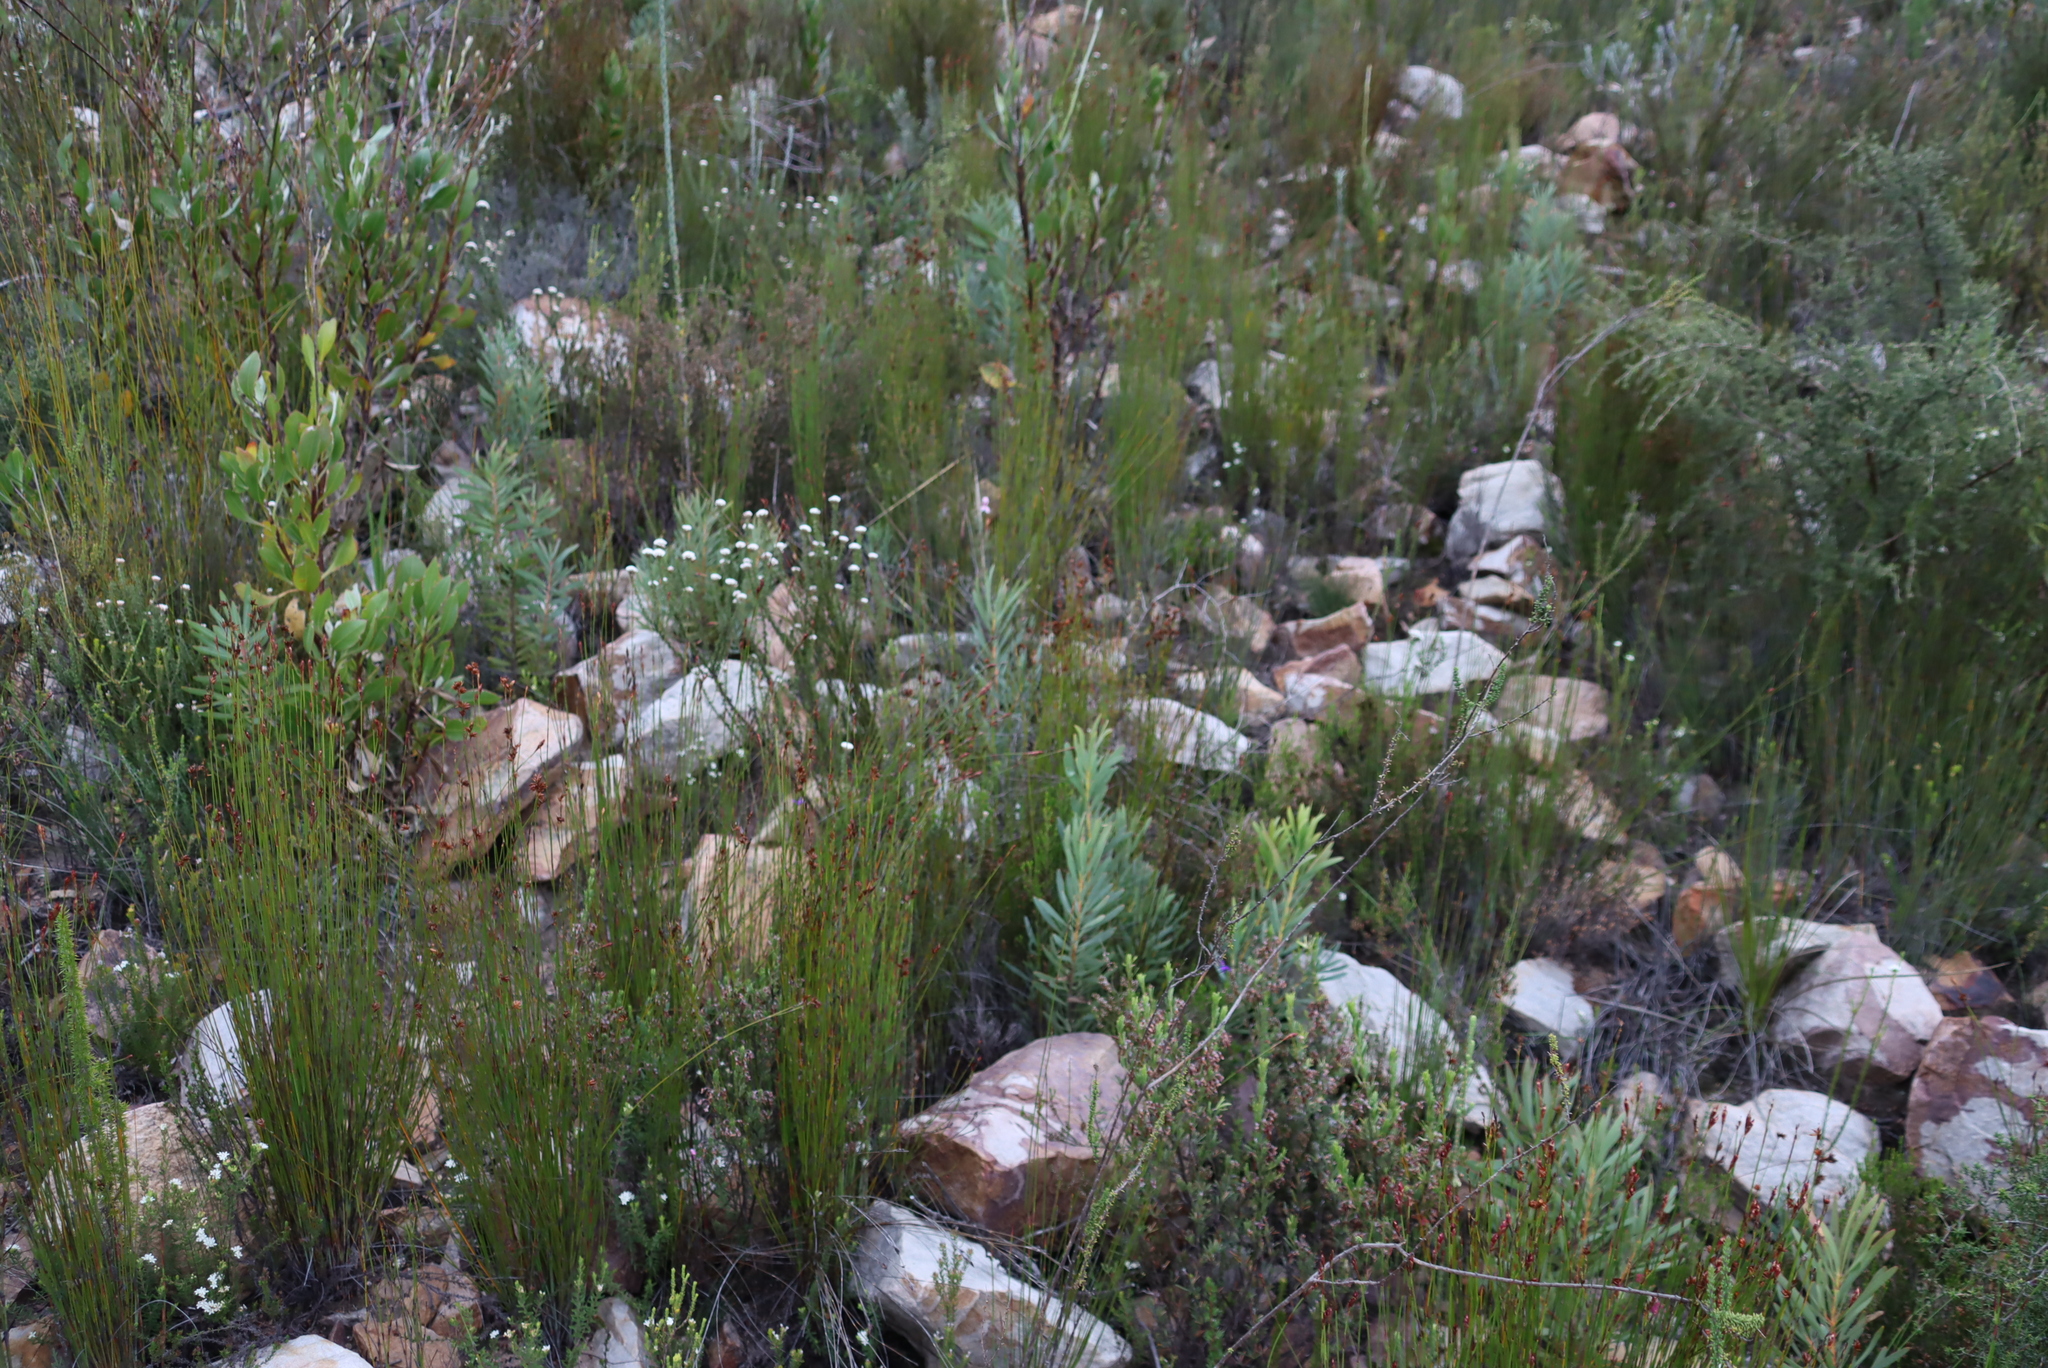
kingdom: Plantae
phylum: Tracheophyta
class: Magnoliopsida
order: Proteales
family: Proteaceae
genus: Protea
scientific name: Protea repens
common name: Sugarbush
